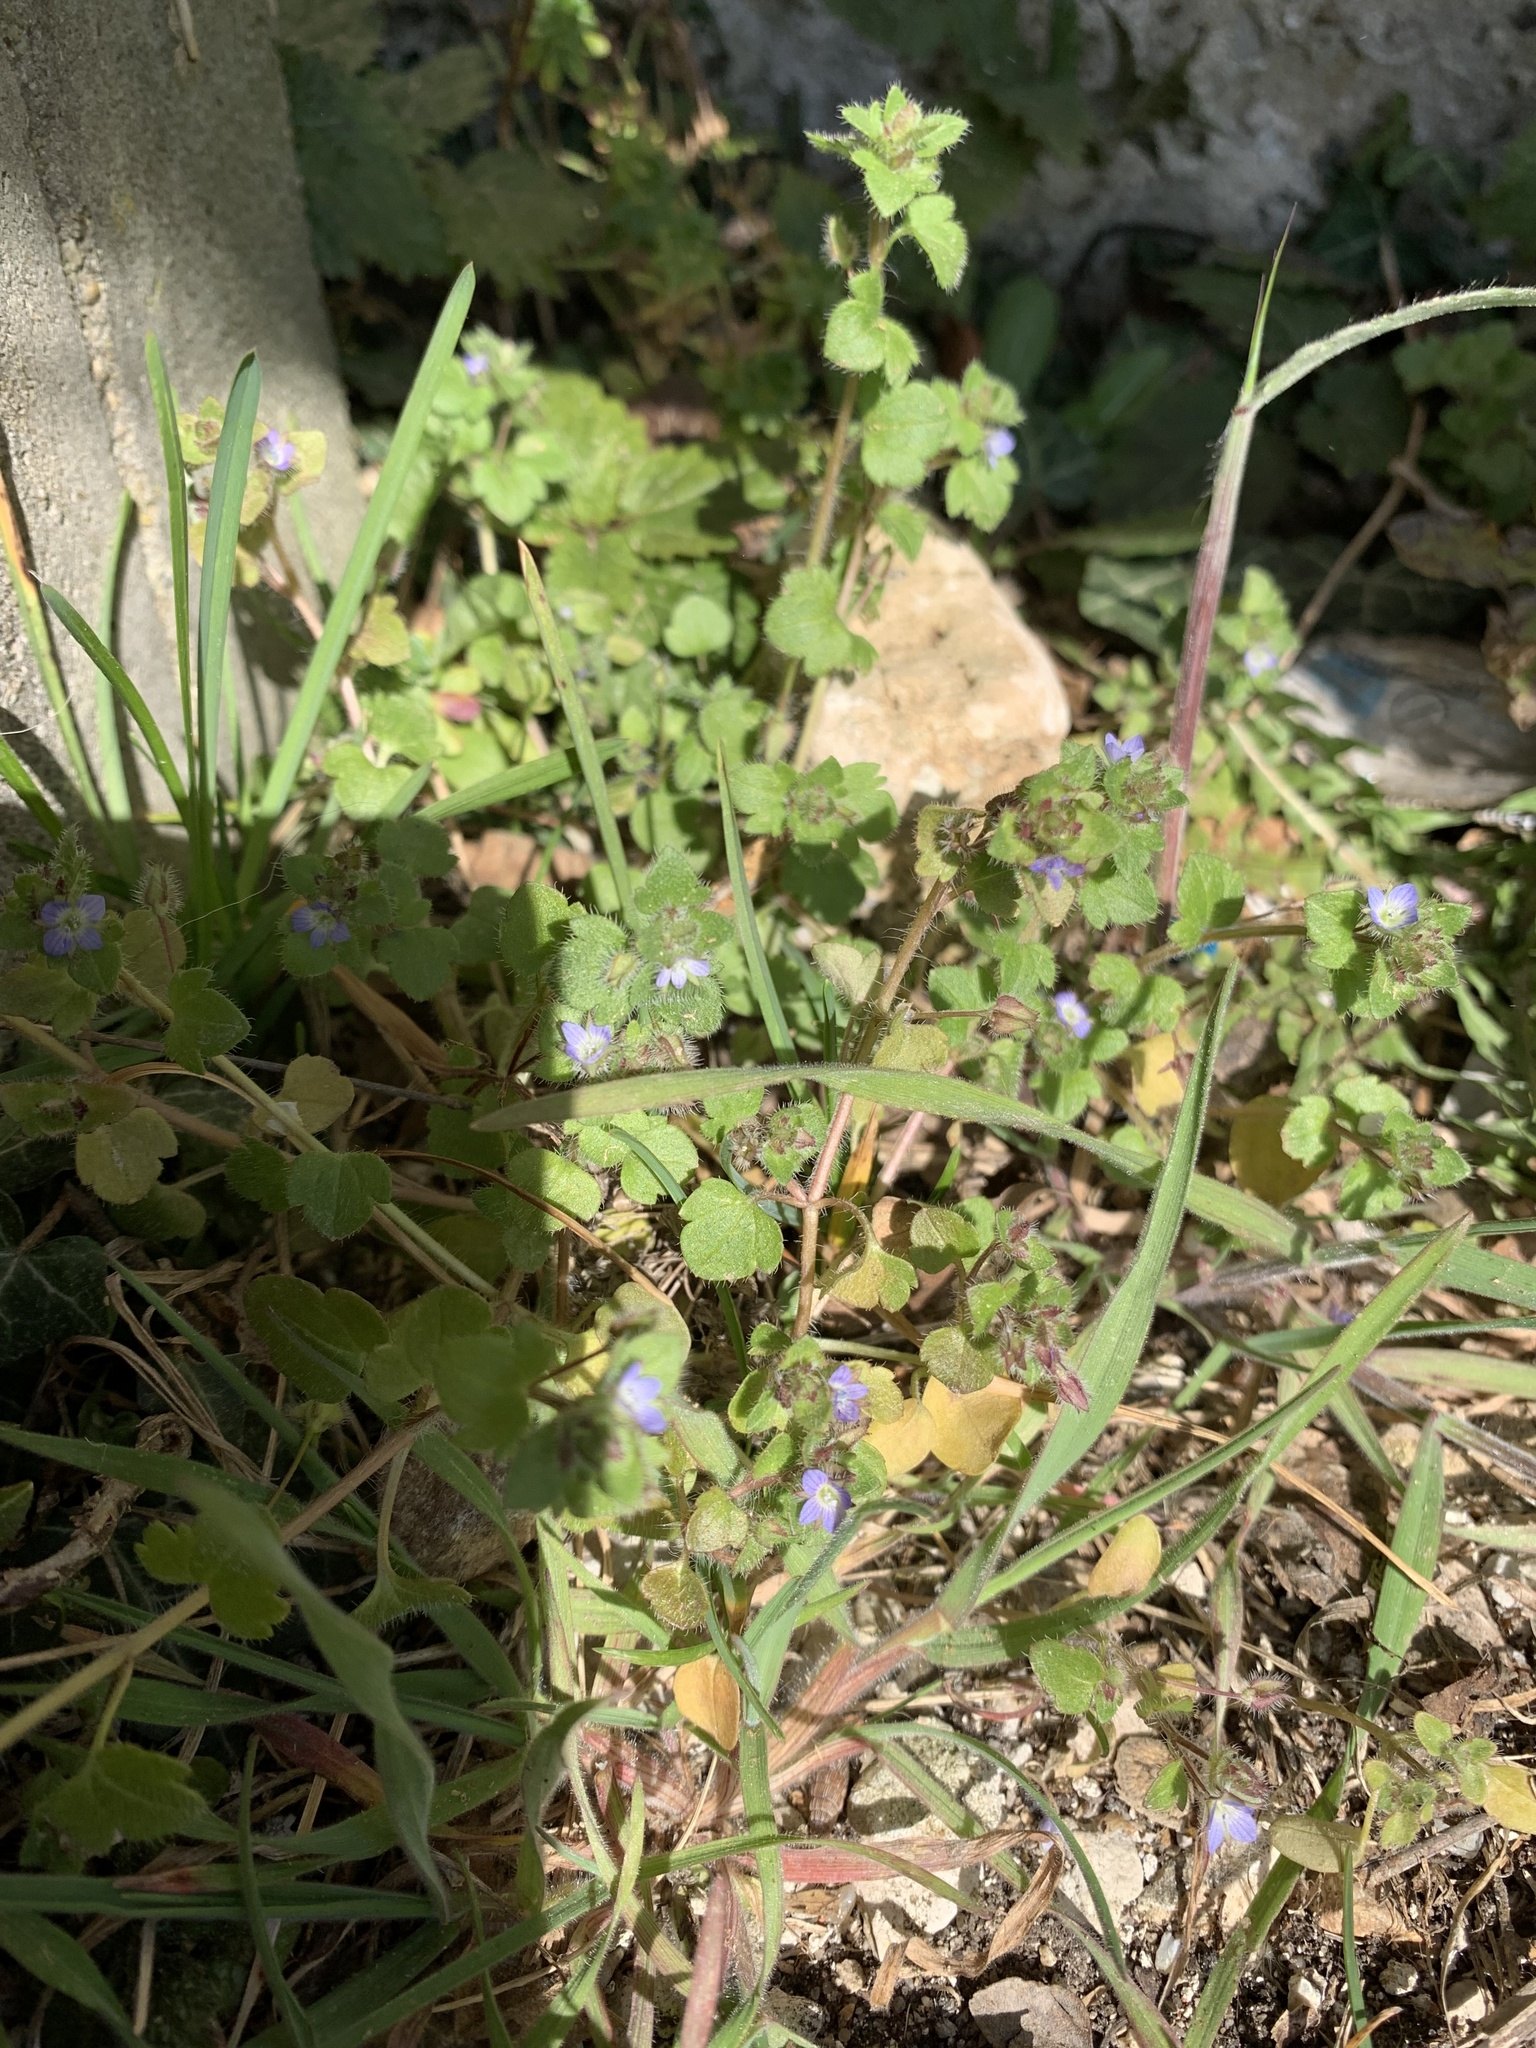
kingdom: Plantae
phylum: Tracheophyta
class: Magnoliopsida
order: Lamiales
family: Plantaginaceae
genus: Veronica
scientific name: Veronica hederifolia
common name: Ivy-leaved speedwell
